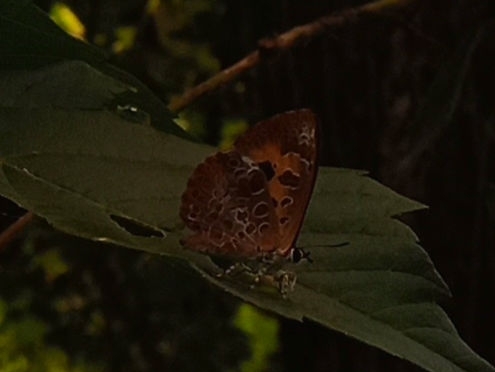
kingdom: Animalia
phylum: Arthropoda
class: Insecta
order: Lepidoptera
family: Lycaenidae
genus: Feniseca
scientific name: Feniseca tarquinius
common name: Harvester
